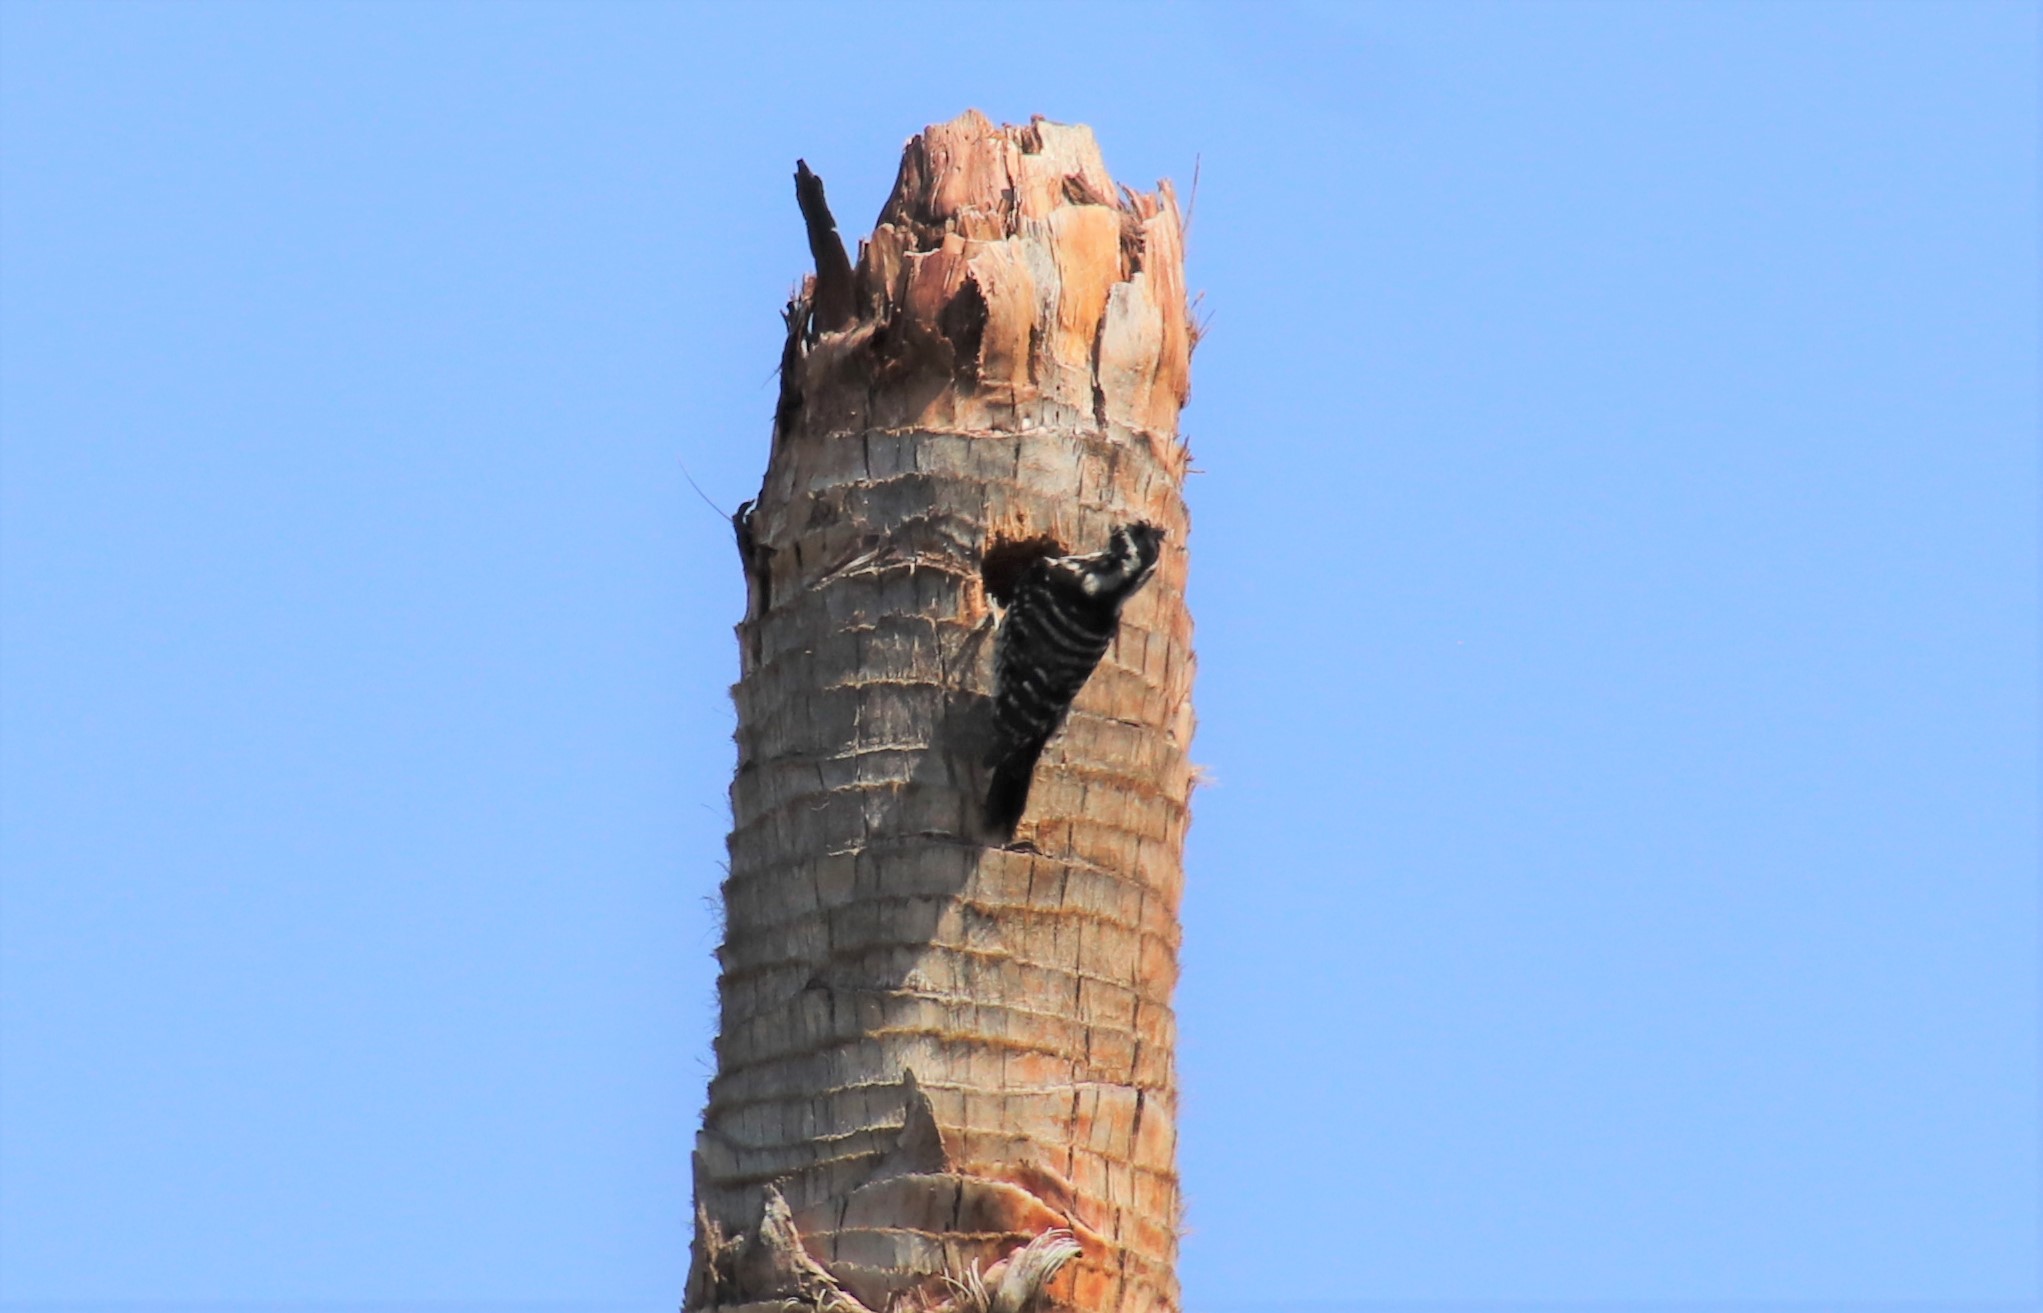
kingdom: Animalia
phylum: Chordata
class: Aves
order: Piciformes
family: Picidae
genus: Dryobates
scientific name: Dryobates nuttallii
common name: Nuttall's woodpecker
